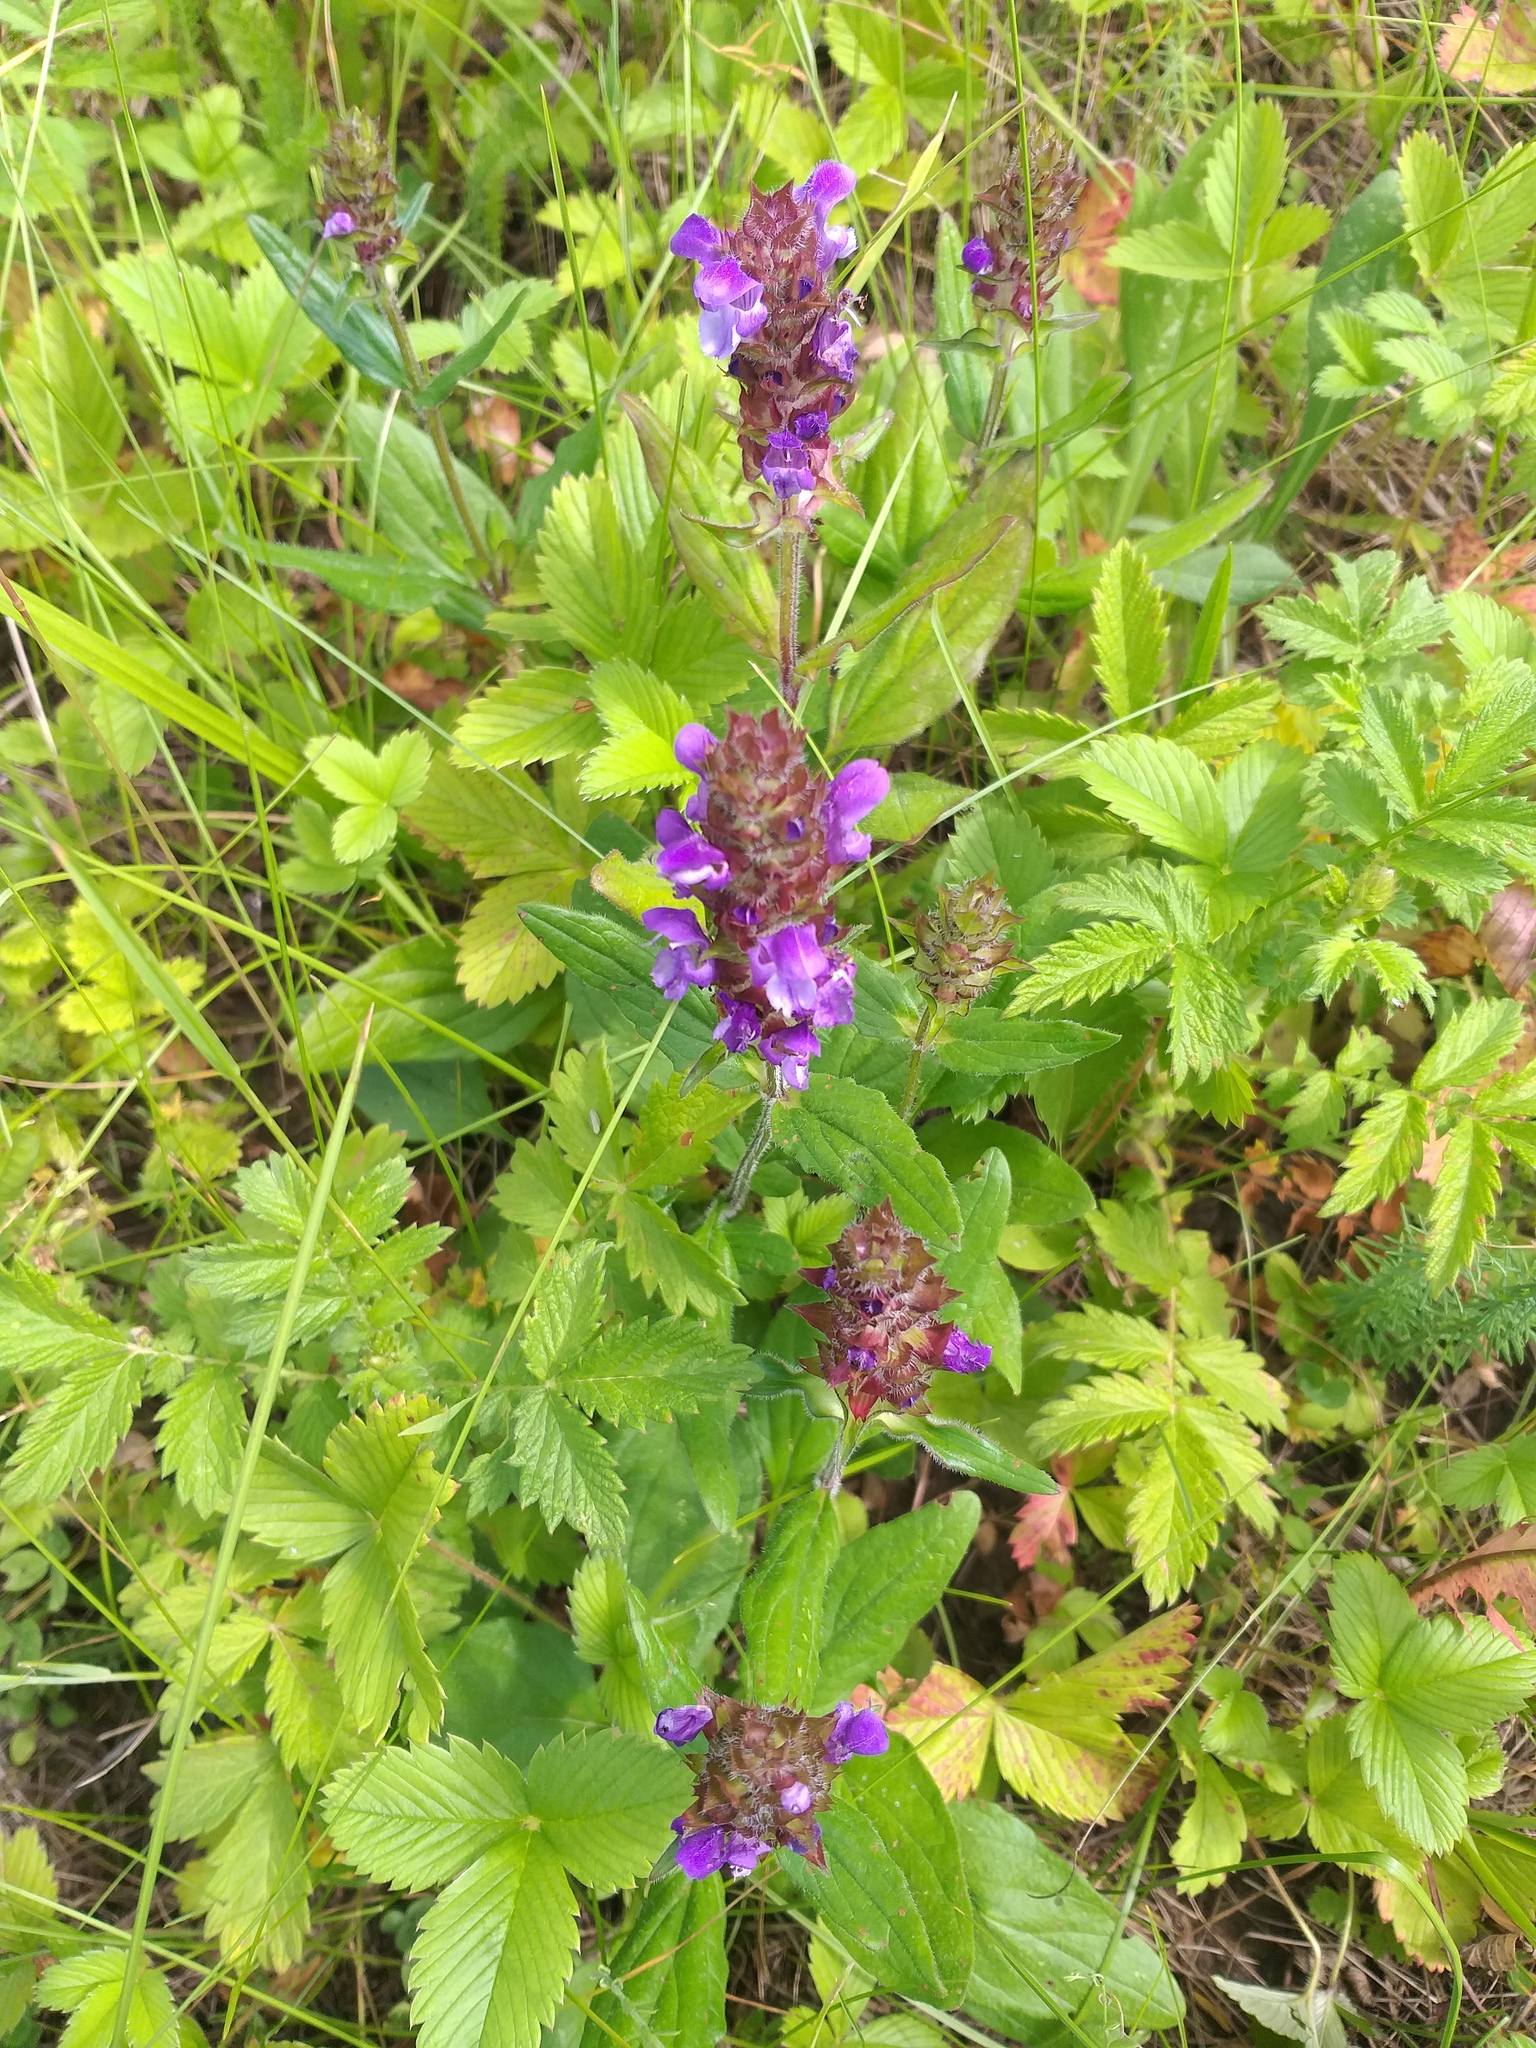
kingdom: Plantae
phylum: Tracheophyta
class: Magnoliopsida
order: Lamiales
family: Lamiaceae
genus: Prunella
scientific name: Prunella grandiflora
